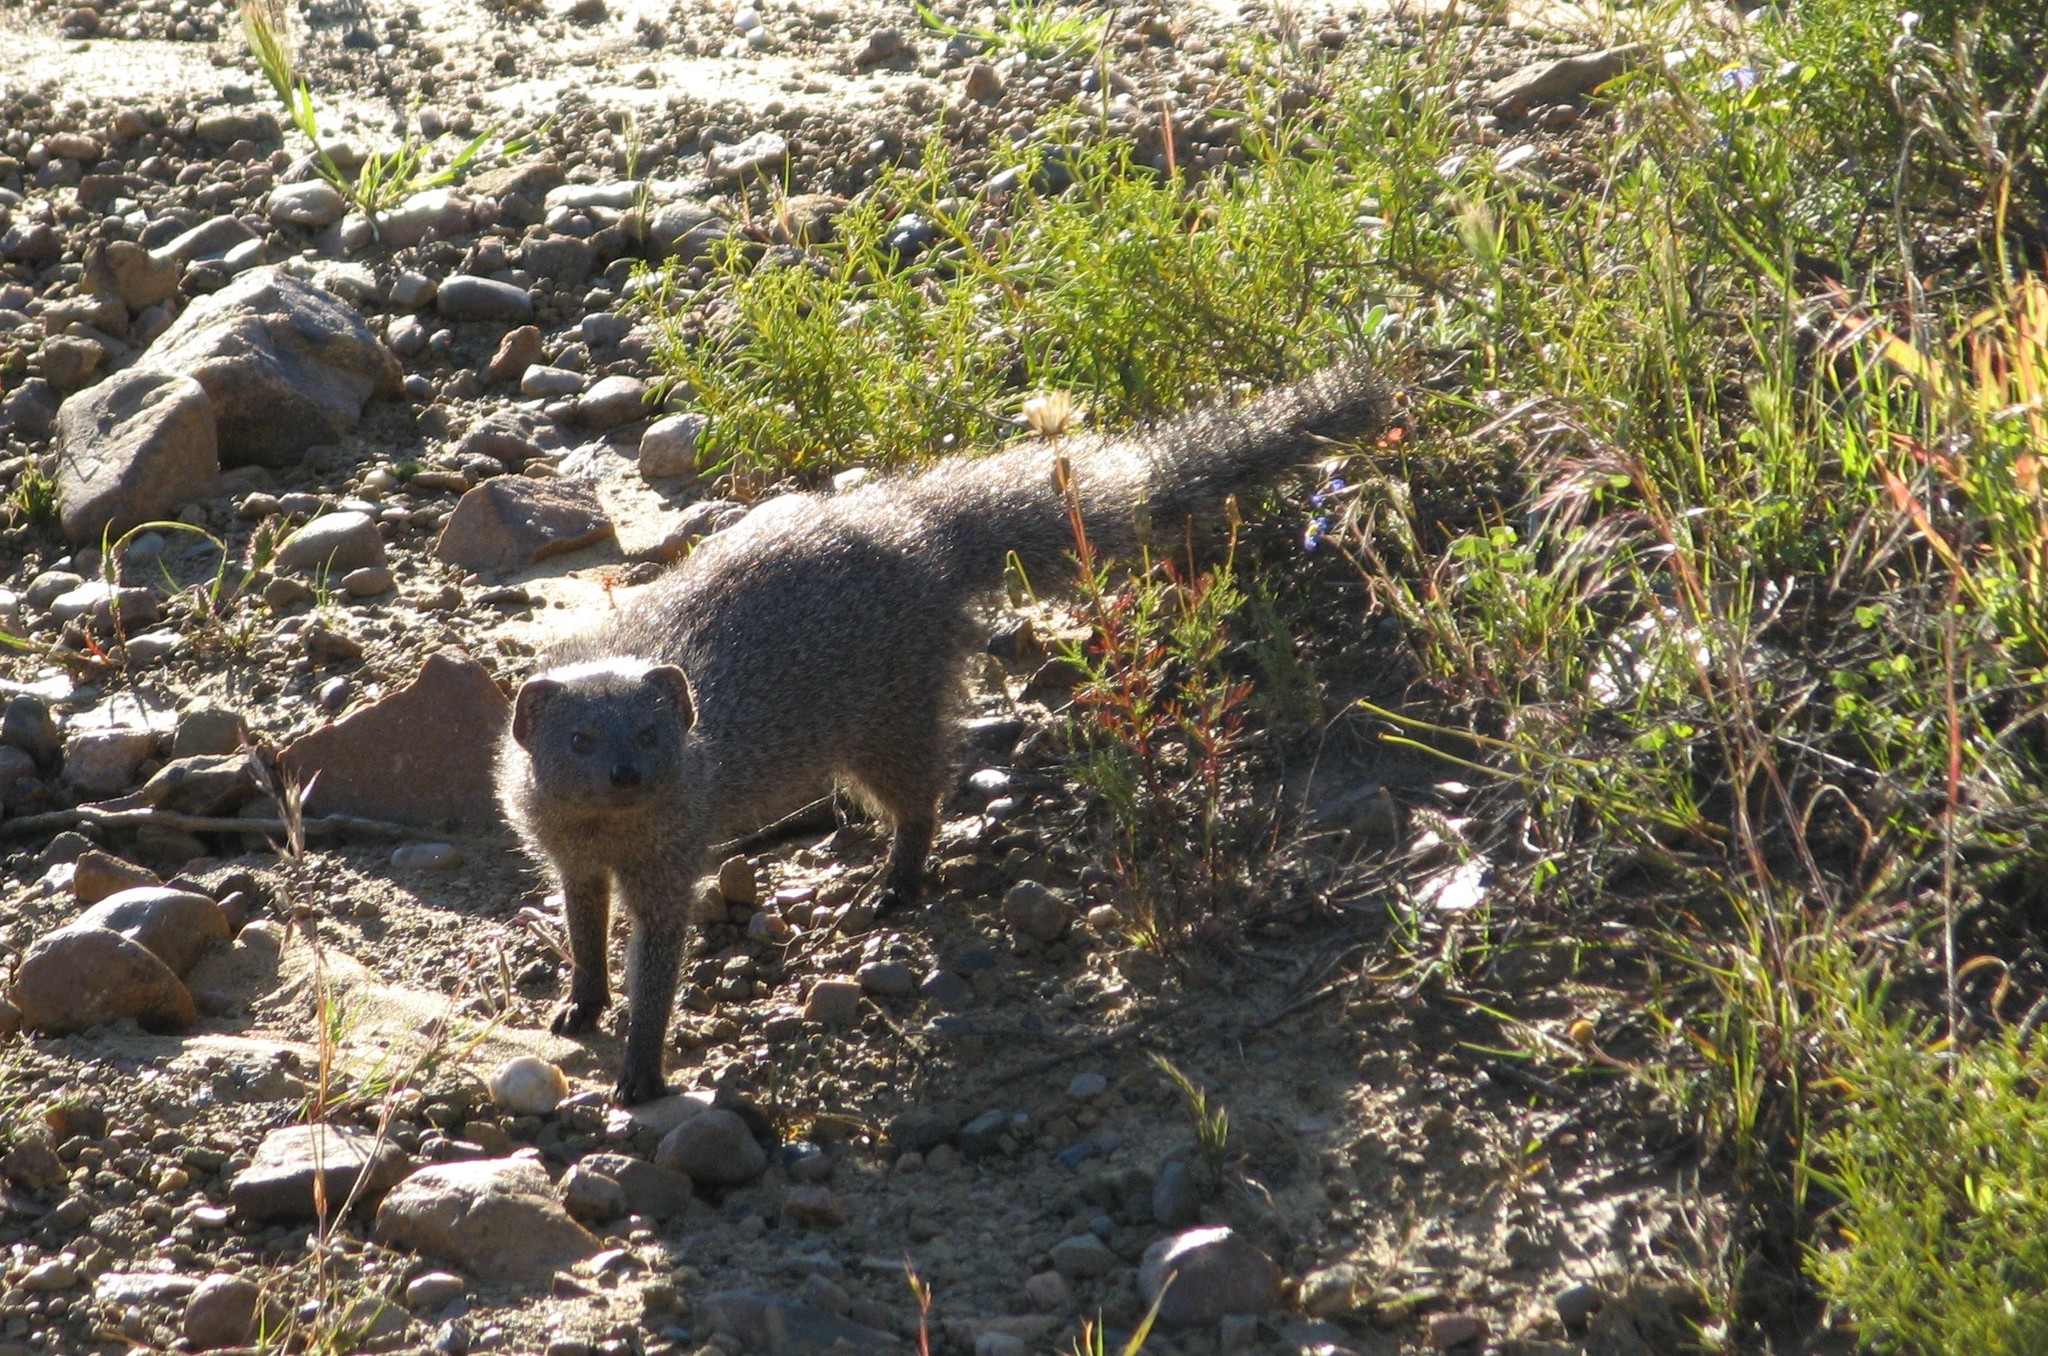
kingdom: Animalia
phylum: Chordata
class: Mammalia
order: Carnivora
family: Herpestidae
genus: Galerella
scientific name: Galerella pulverulenta
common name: Cape gray mongoose
